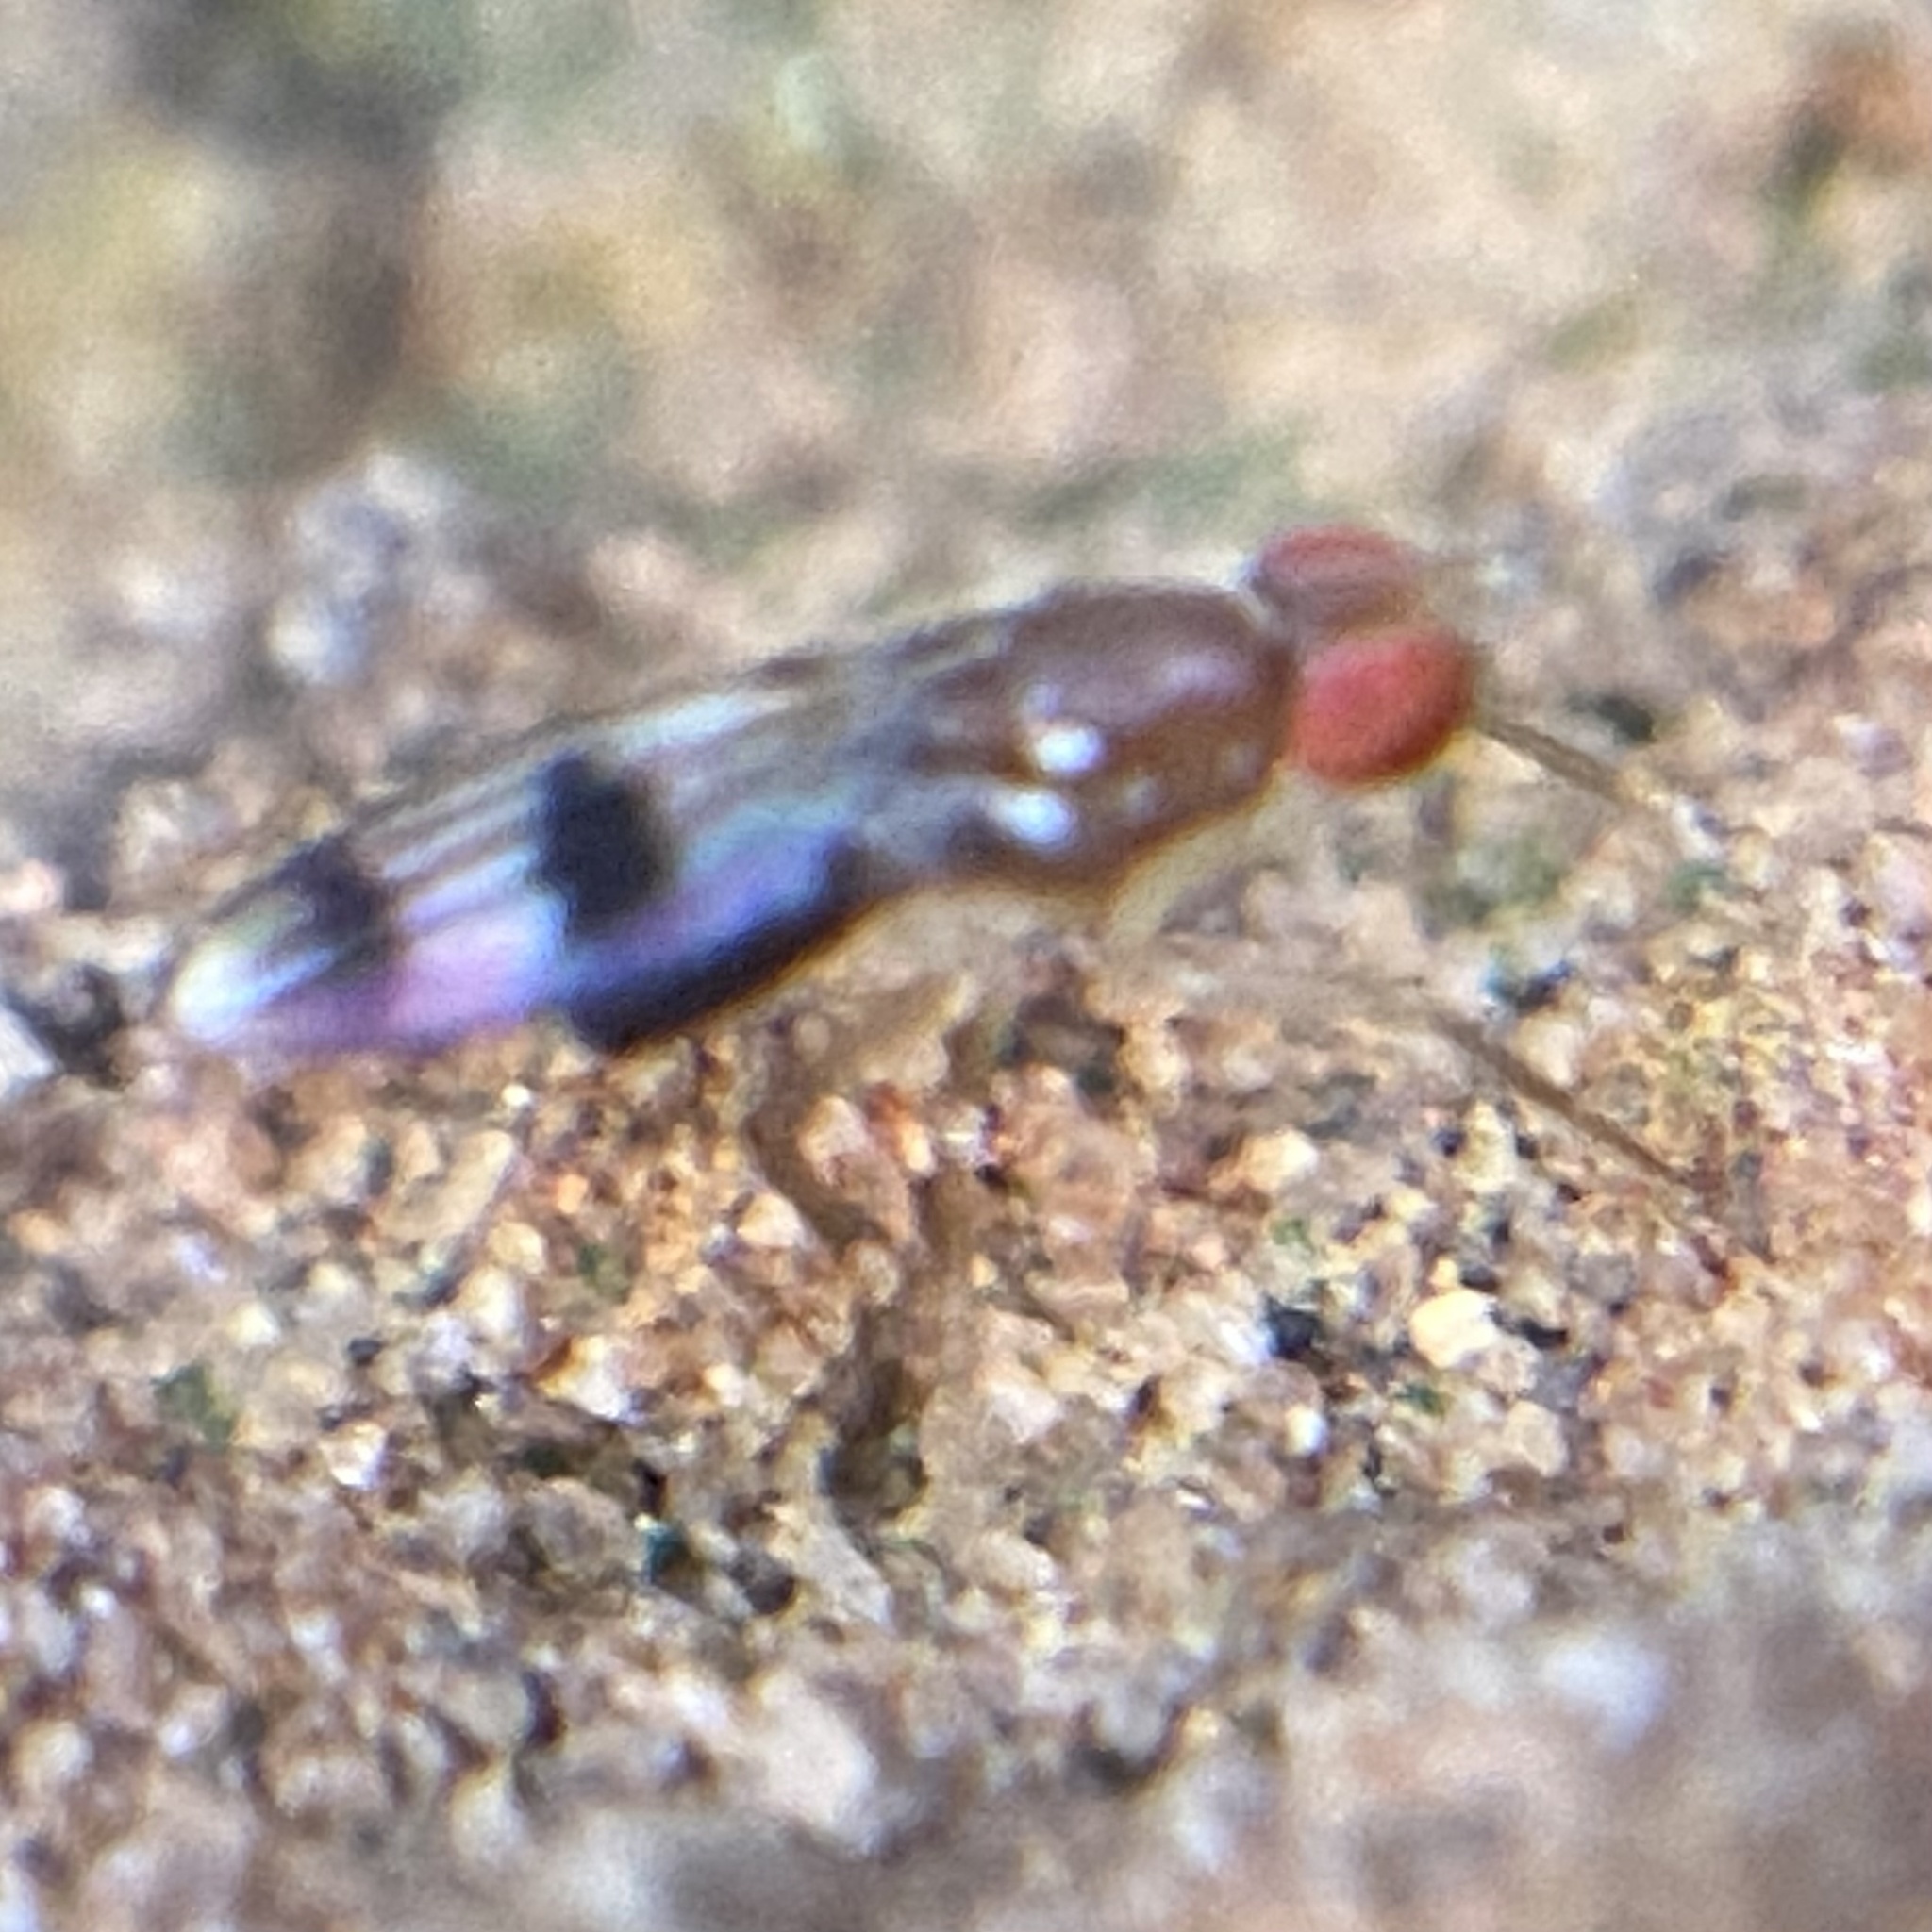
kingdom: Animalia
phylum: Arthropoda
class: Insecta
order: Diptera
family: Drosophilidae
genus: Chymomyza
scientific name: Chymomyza amoena
